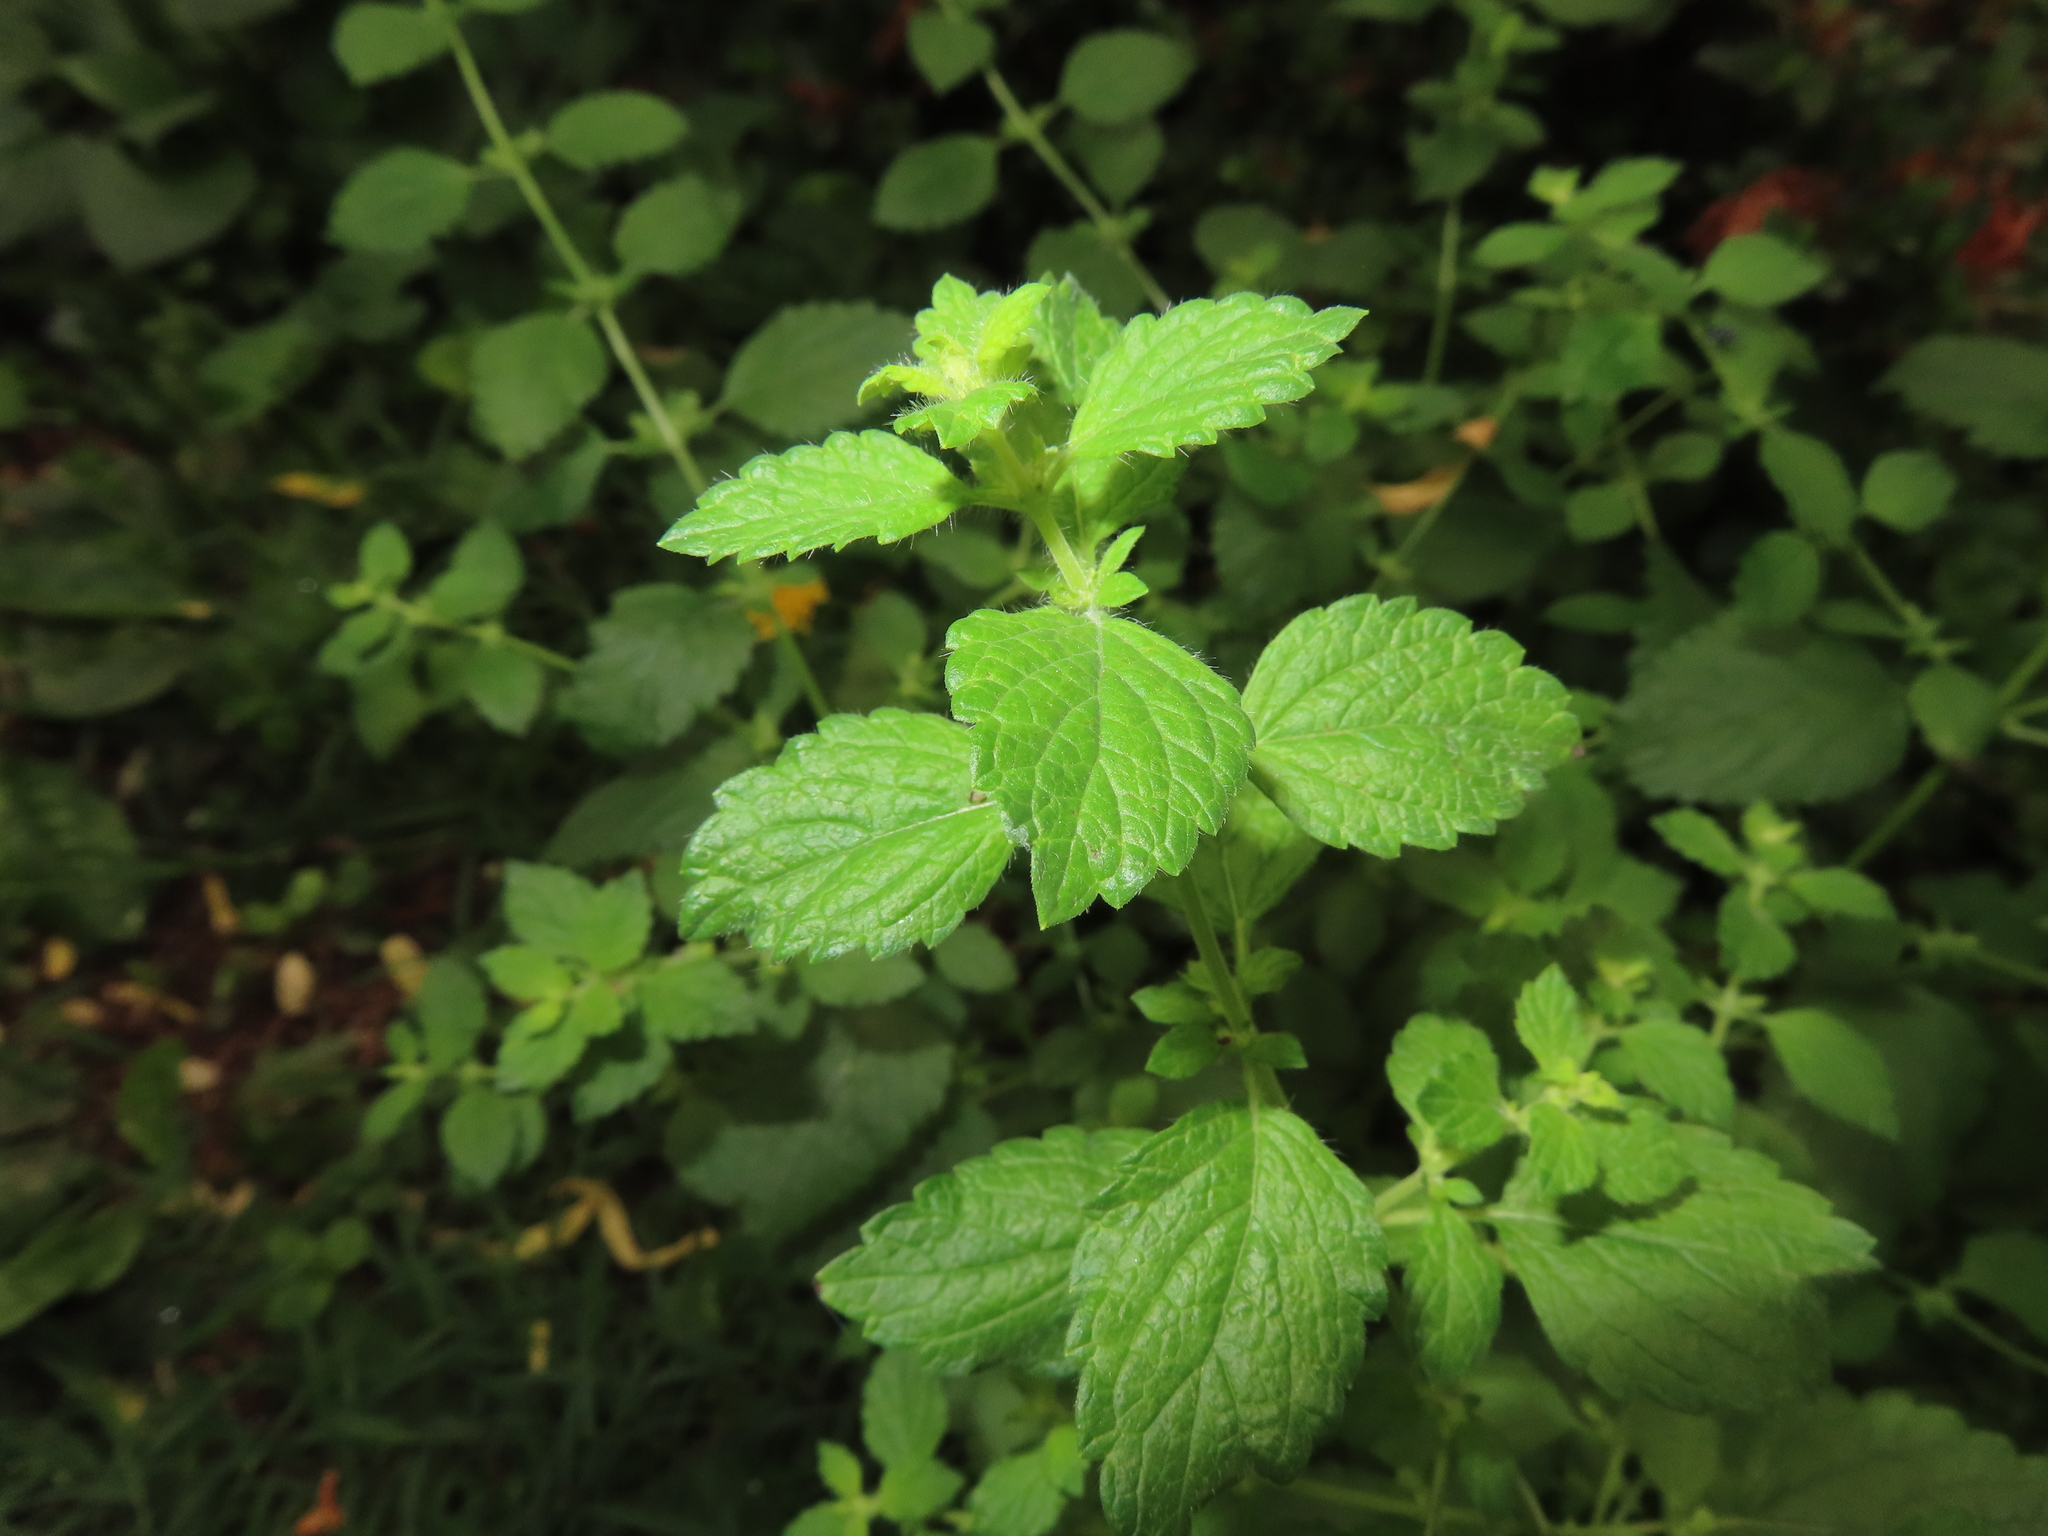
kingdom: Plantae
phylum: Tracheophyta
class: Magnoliopsida
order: Lamiales
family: Lamiaceae
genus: Melissa
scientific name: Melissa officinalis
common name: Balm
